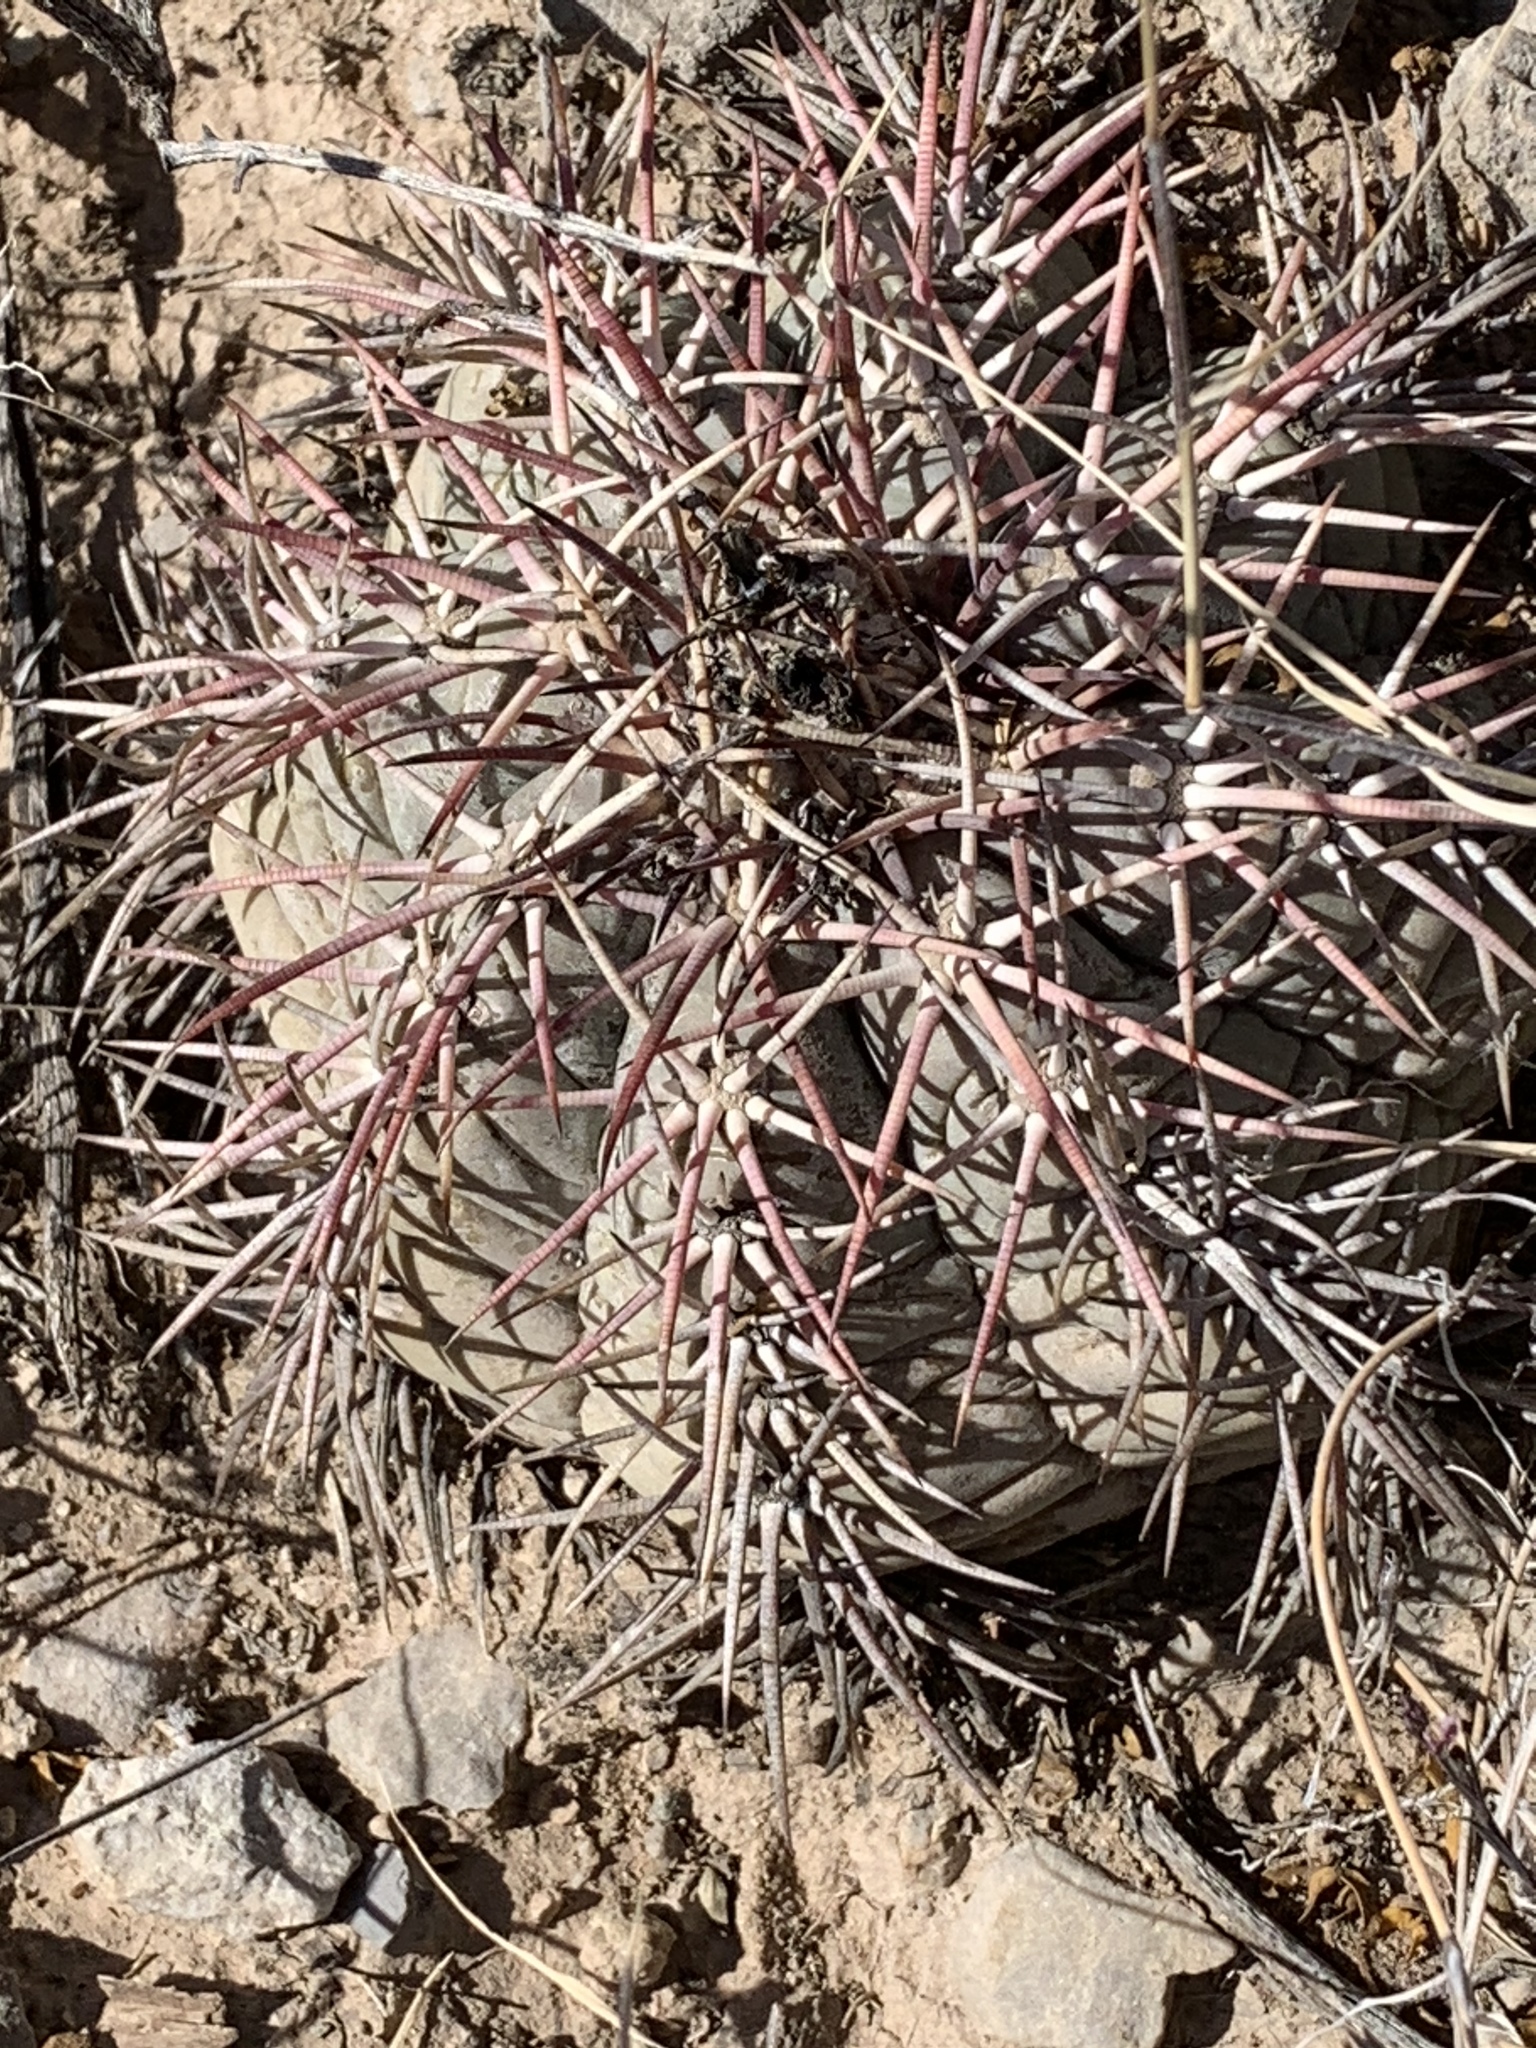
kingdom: Plantae
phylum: Tracheophyta
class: Magnoliopsida
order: Caryophyllales
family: Cactaceae
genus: Echinocactus
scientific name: Echinocactus horizonthalonius
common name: Devilshead
